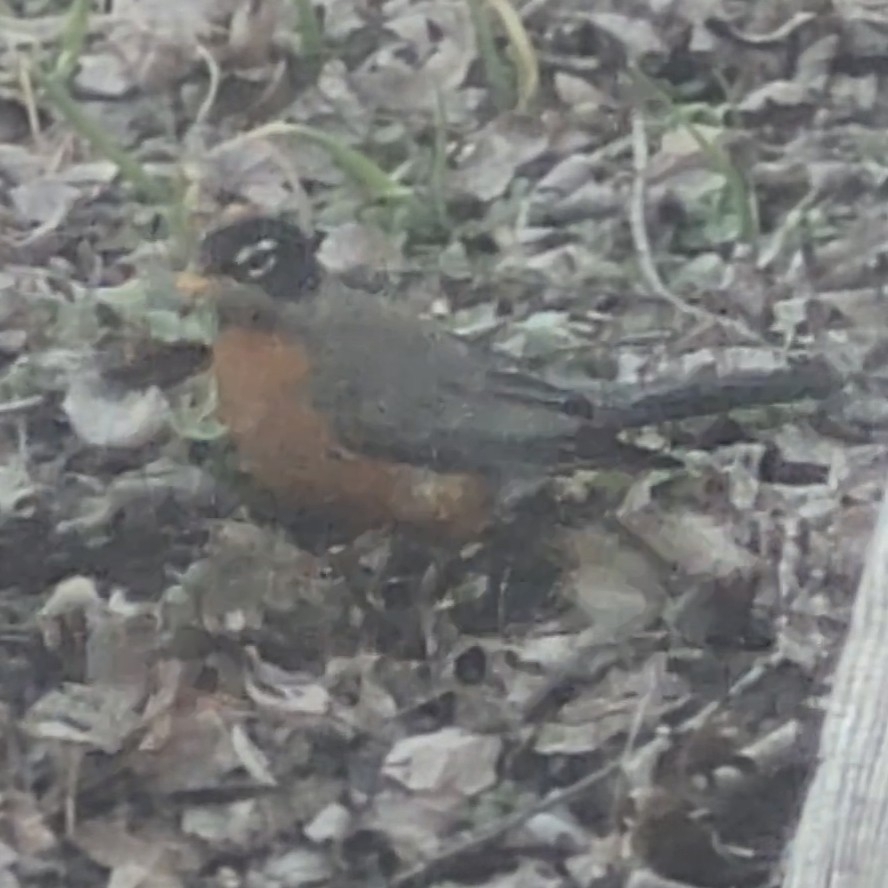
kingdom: Animalia
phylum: Chordata
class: Aves
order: Passeriformes
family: Turdidae
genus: Turdus
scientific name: Turdus migratorius
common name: American robin
